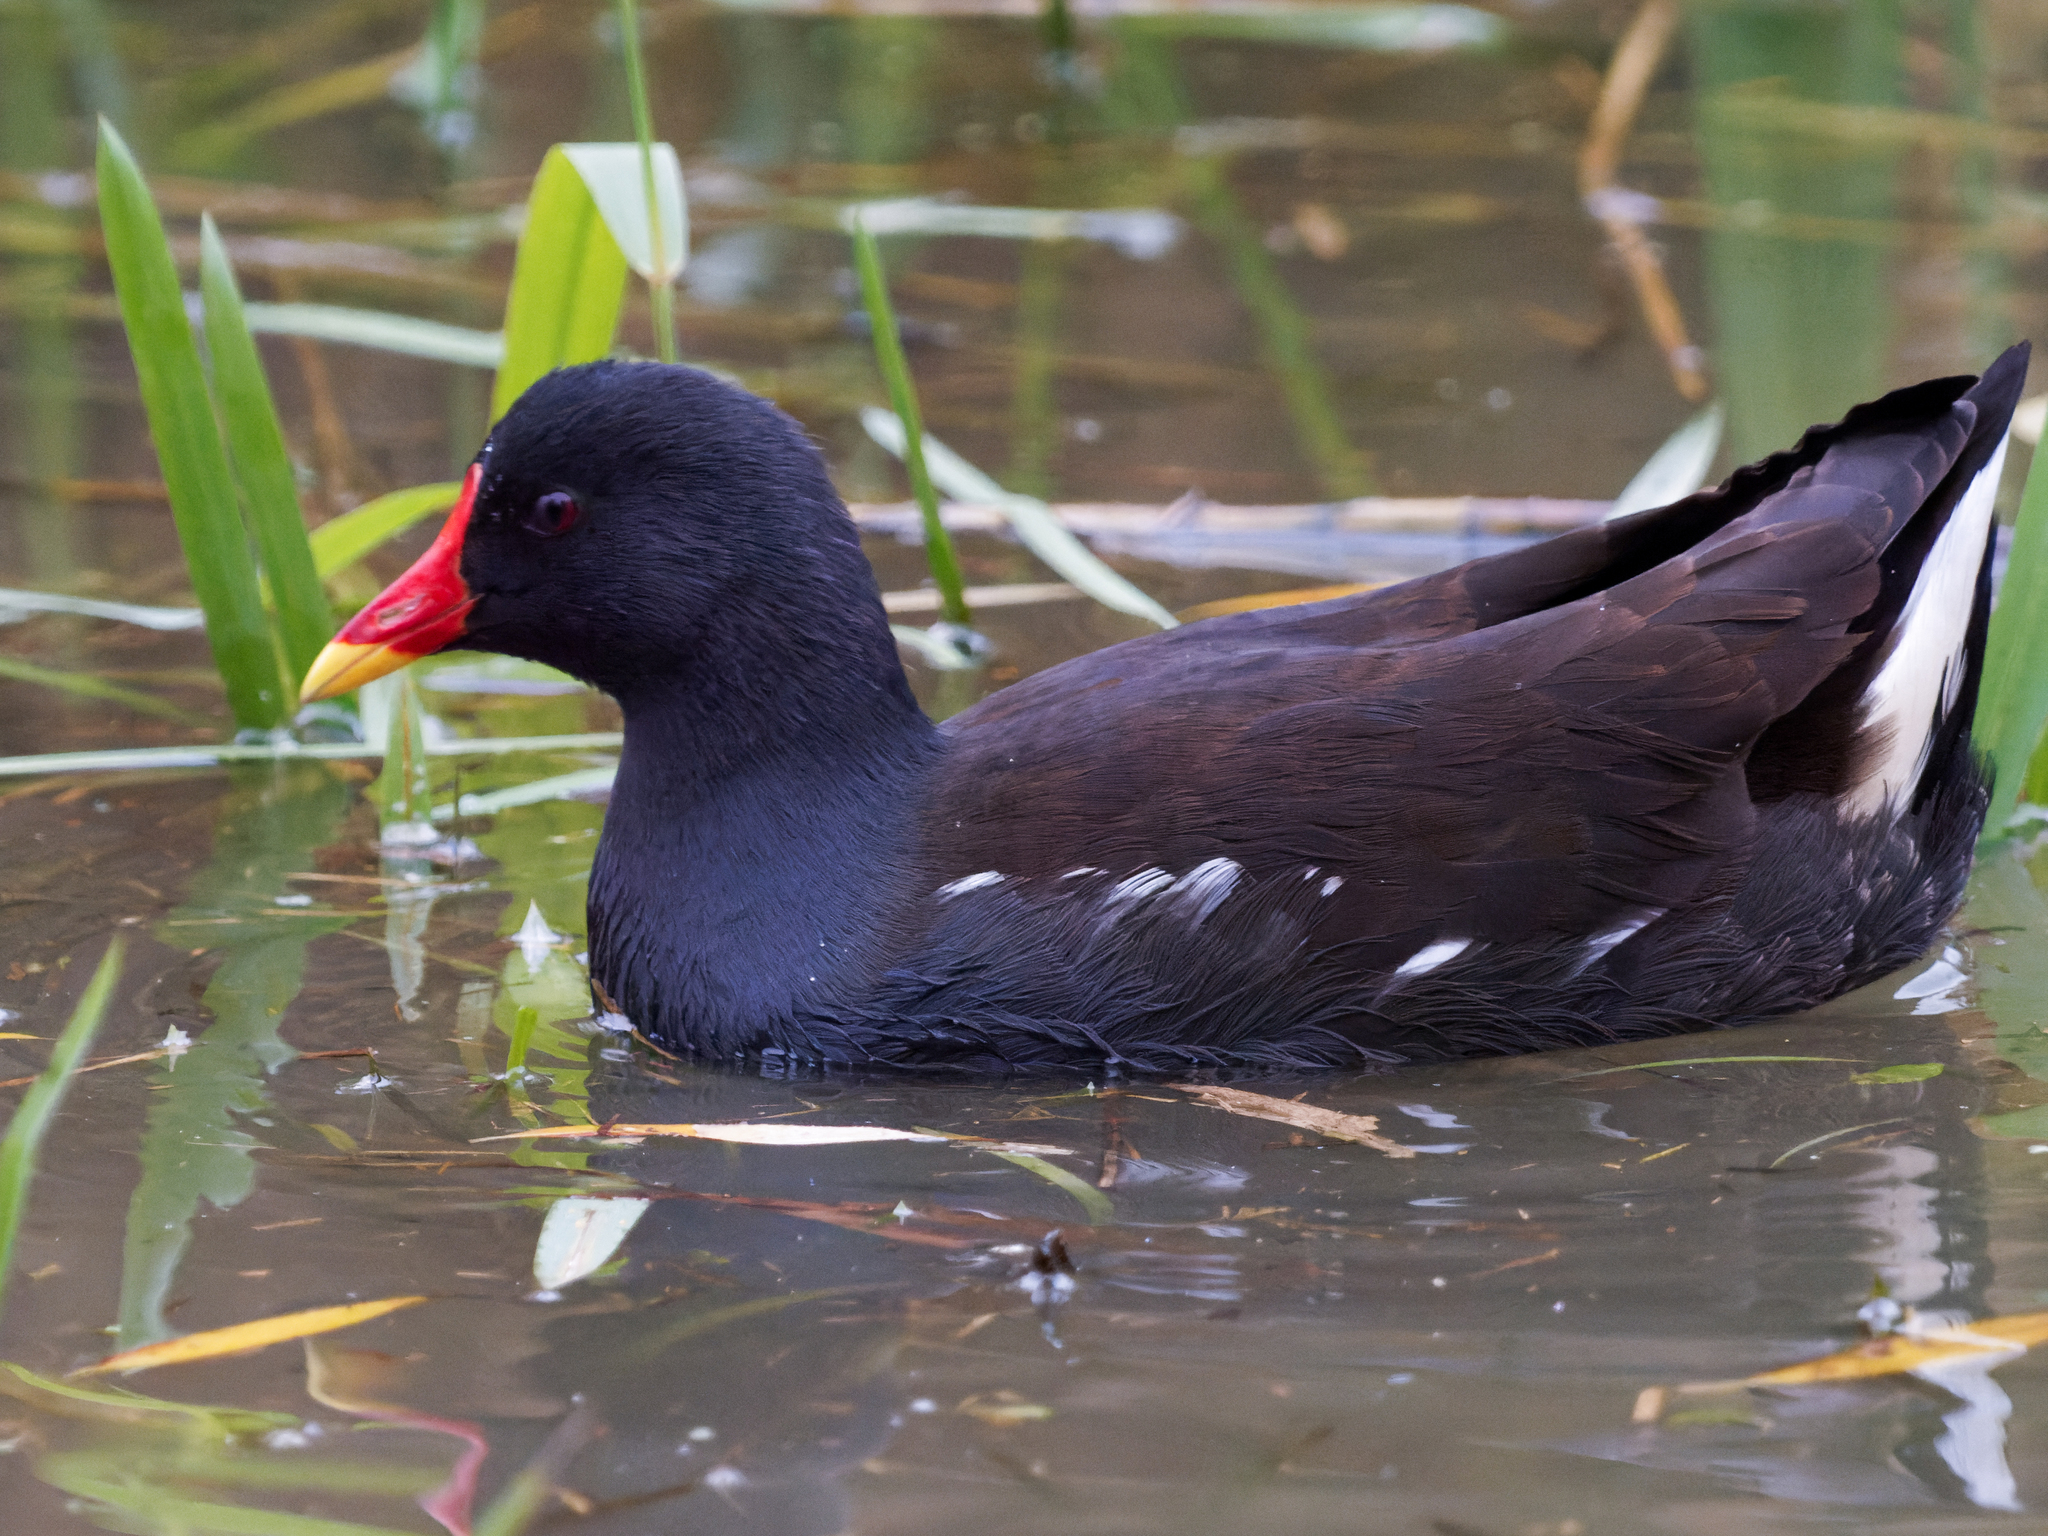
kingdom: Animalia
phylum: Chordata
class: Aves
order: Gruiformes
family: Rallidae
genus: Gallinula
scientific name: Gallinula chloropus
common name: Common moorhen
